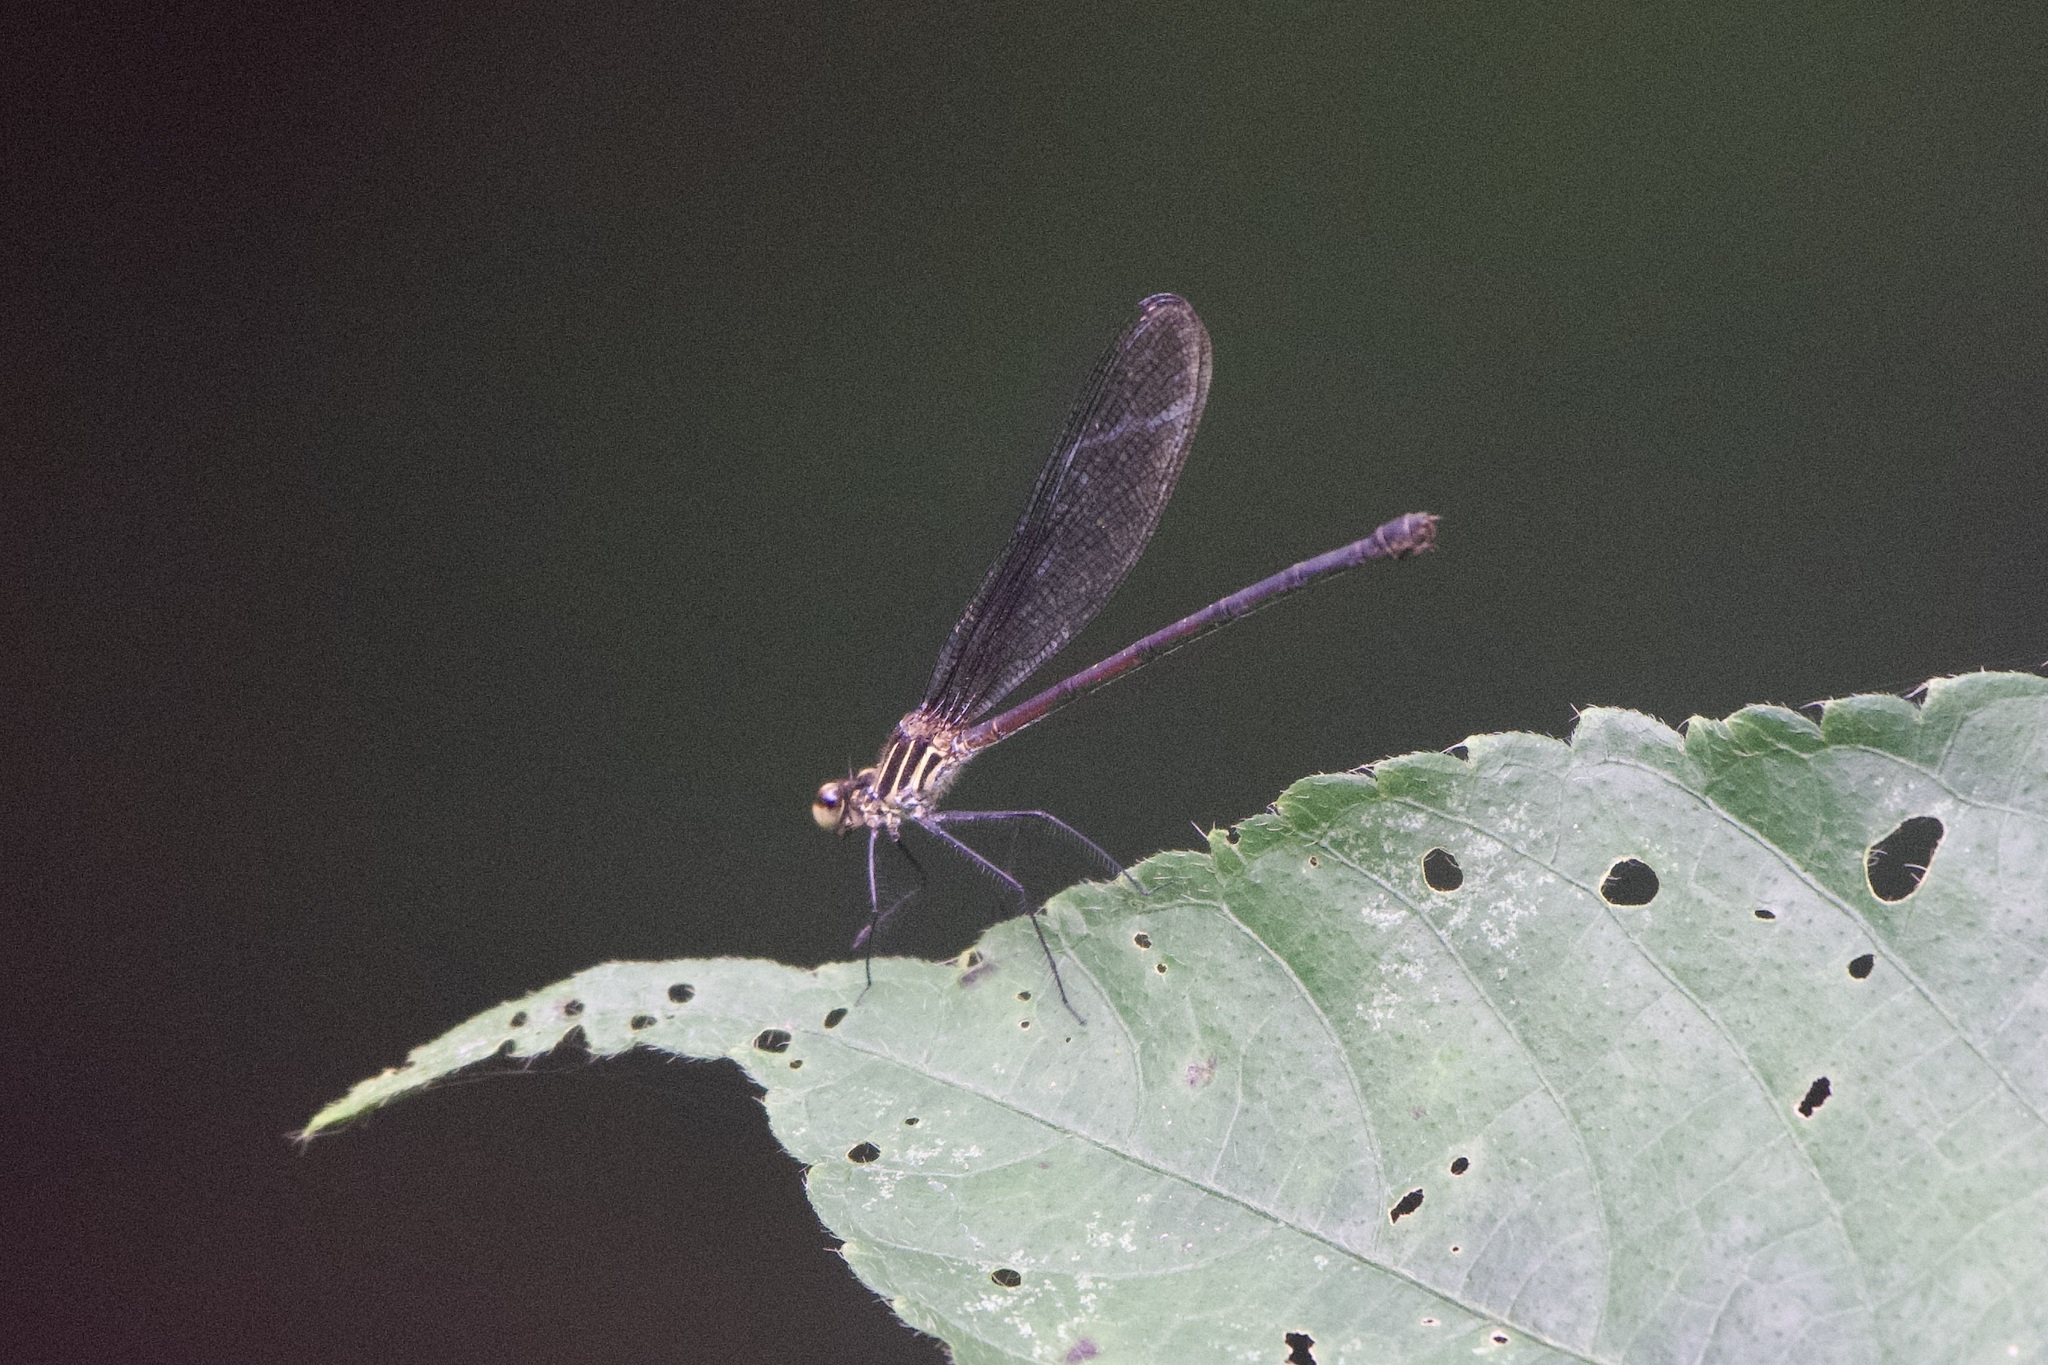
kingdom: Animalia
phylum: Arthropoda
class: Insecta
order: Odonata
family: Calopterygidae
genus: Hetaerina
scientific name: Hetaerina miniata
